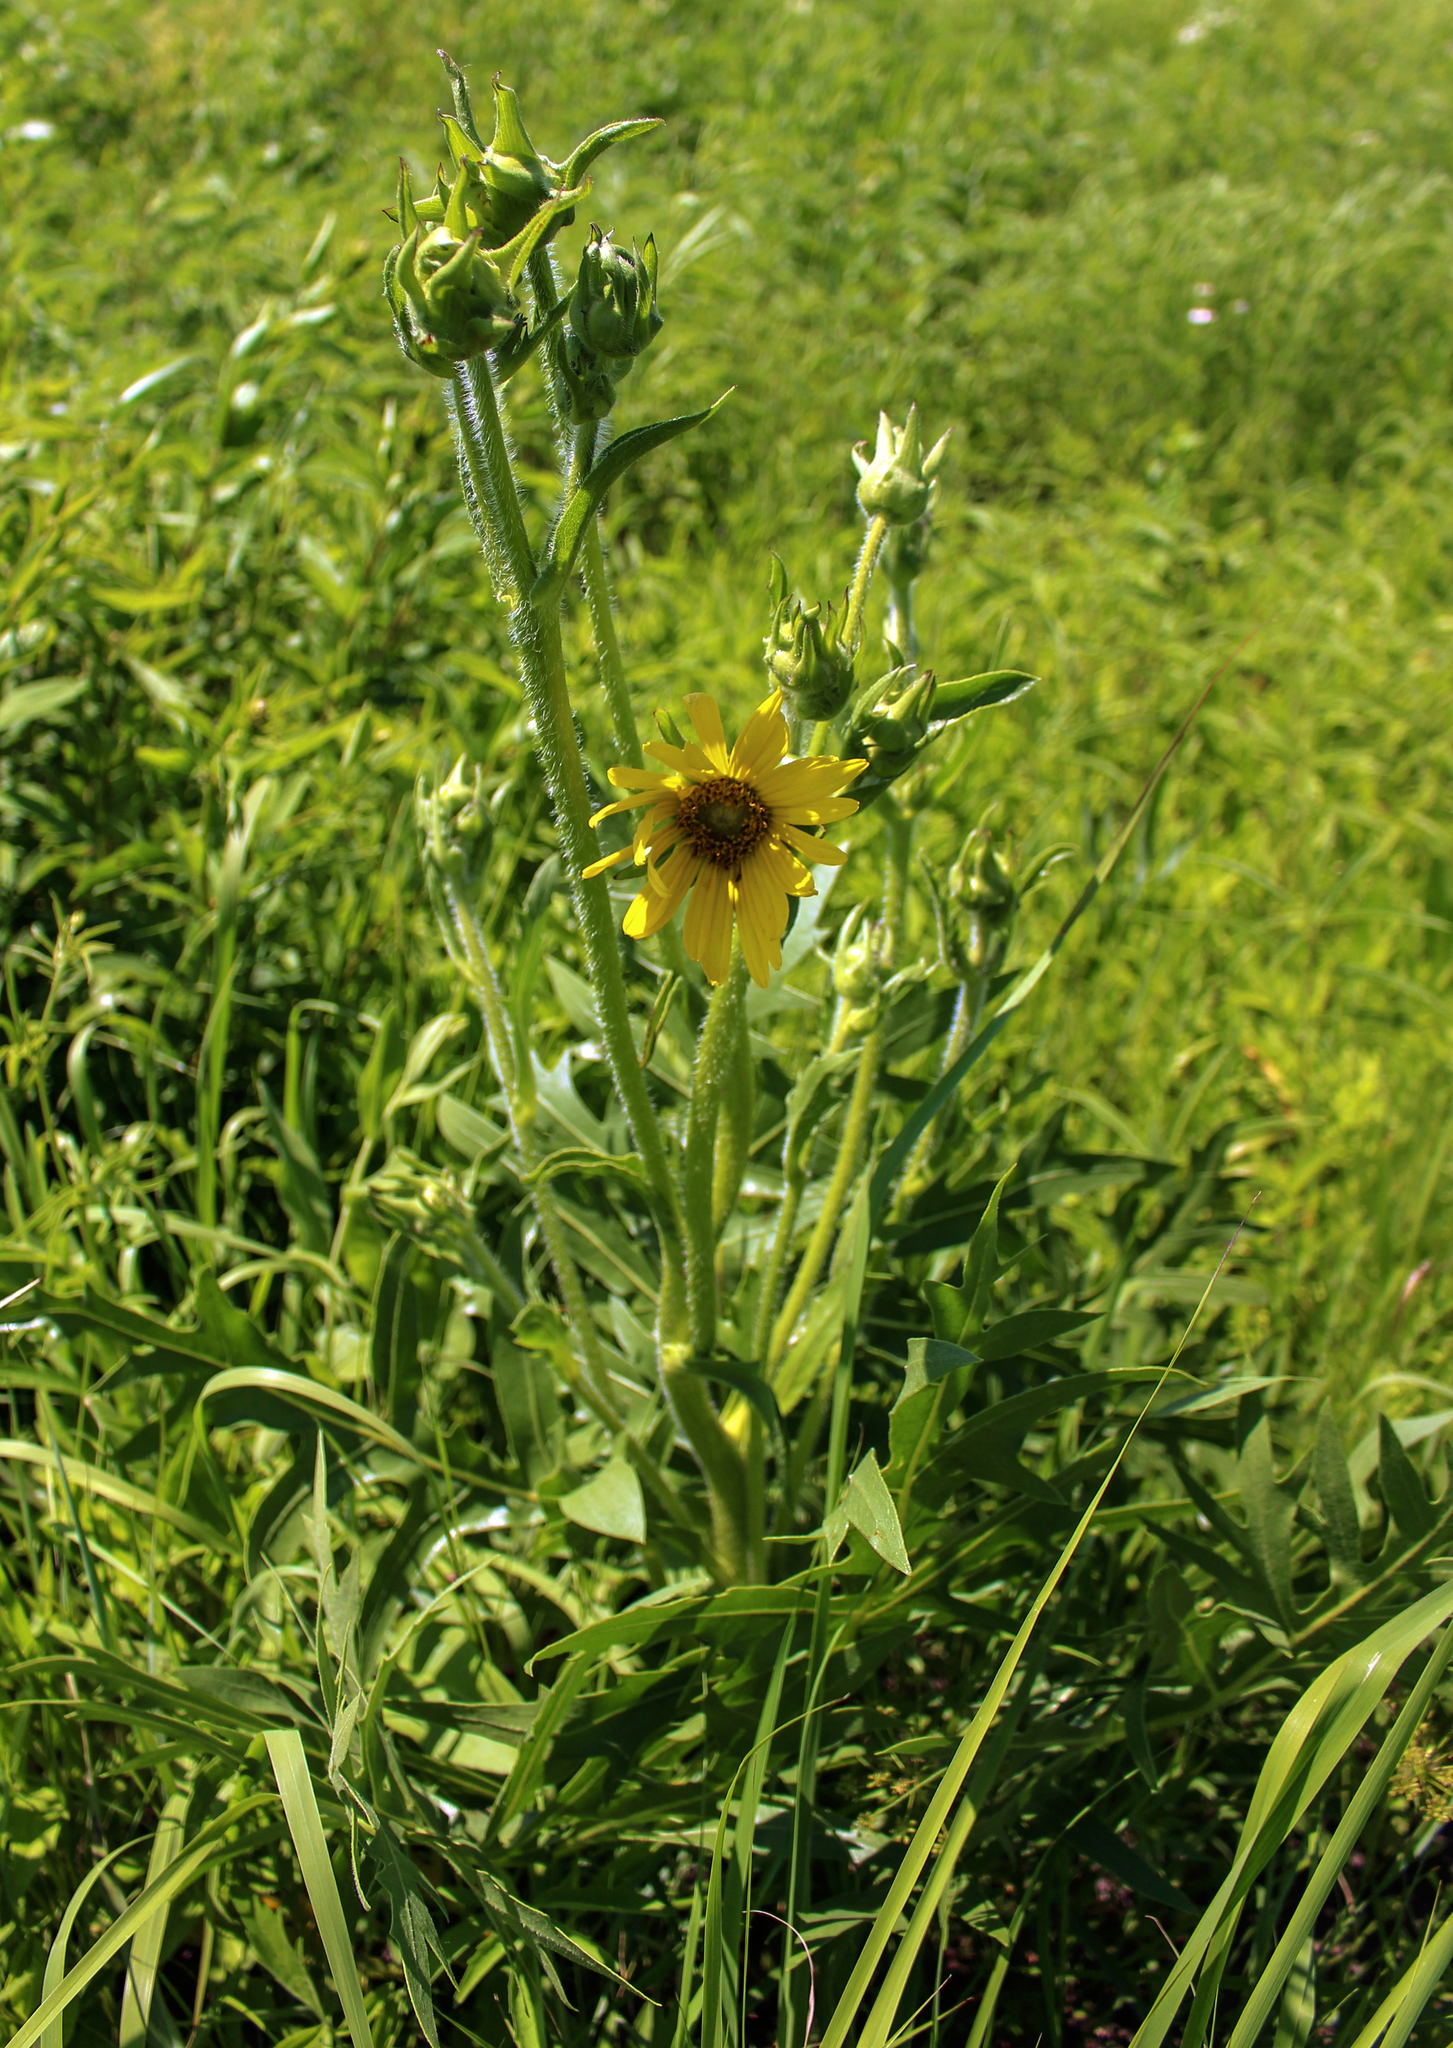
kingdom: Plantae
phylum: Tracheophyta
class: Magnoliopsida
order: Asterales
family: Asteraceae
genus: Silphium
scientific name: Silphium laciniatum
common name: Polarplant
